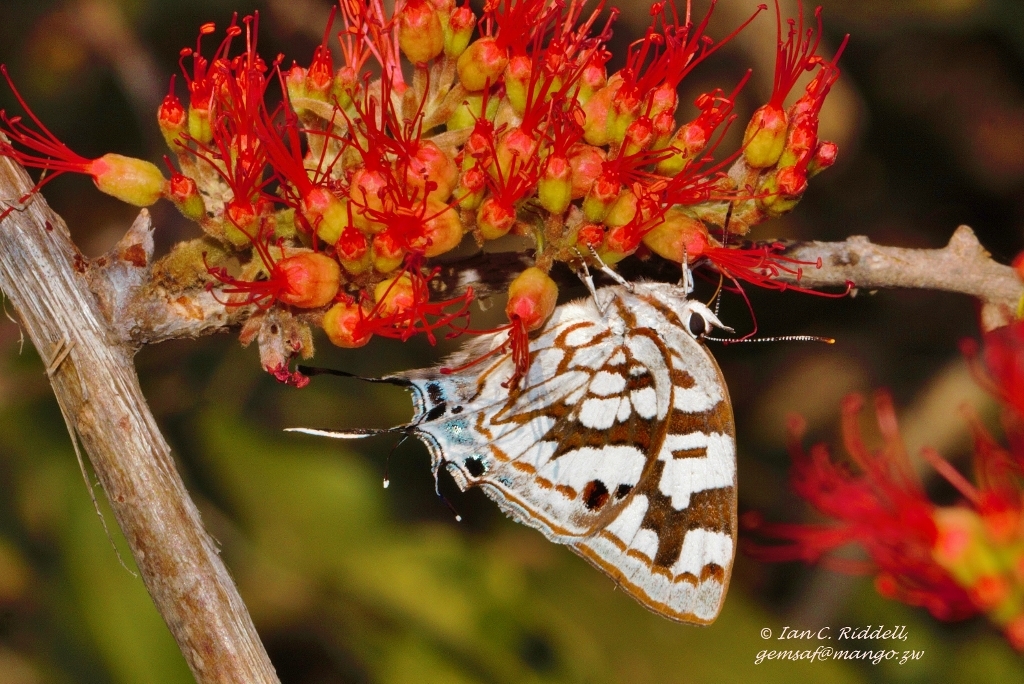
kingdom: Animalia
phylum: Arthropoda
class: Insecta
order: Lepidoptera
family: Lycaenidae
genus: Stugeta
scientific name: Stugeta bowkeri
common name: Bowker's marbled sapphire
